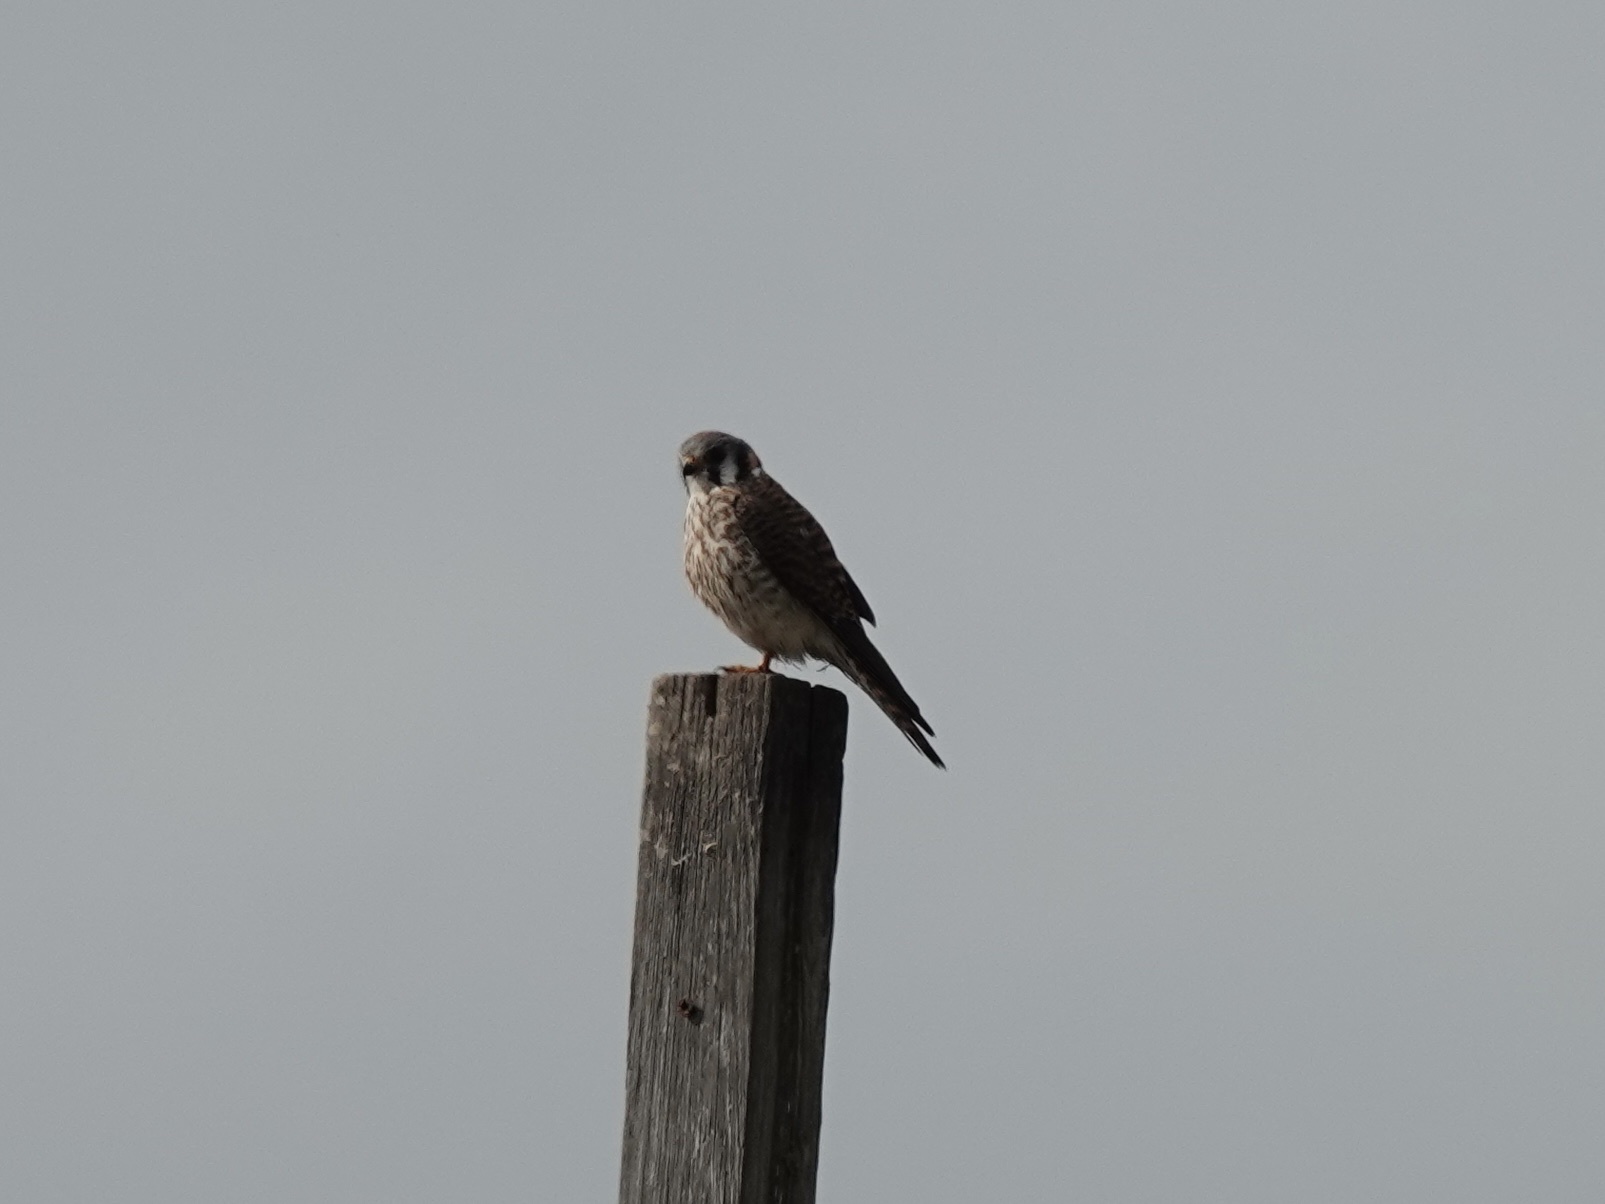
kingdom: Animalia
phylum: Chordata
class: Aves
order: Falconiformes
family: Falconidae
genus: Falco
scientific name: Falco sparverius
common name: American kestrel
